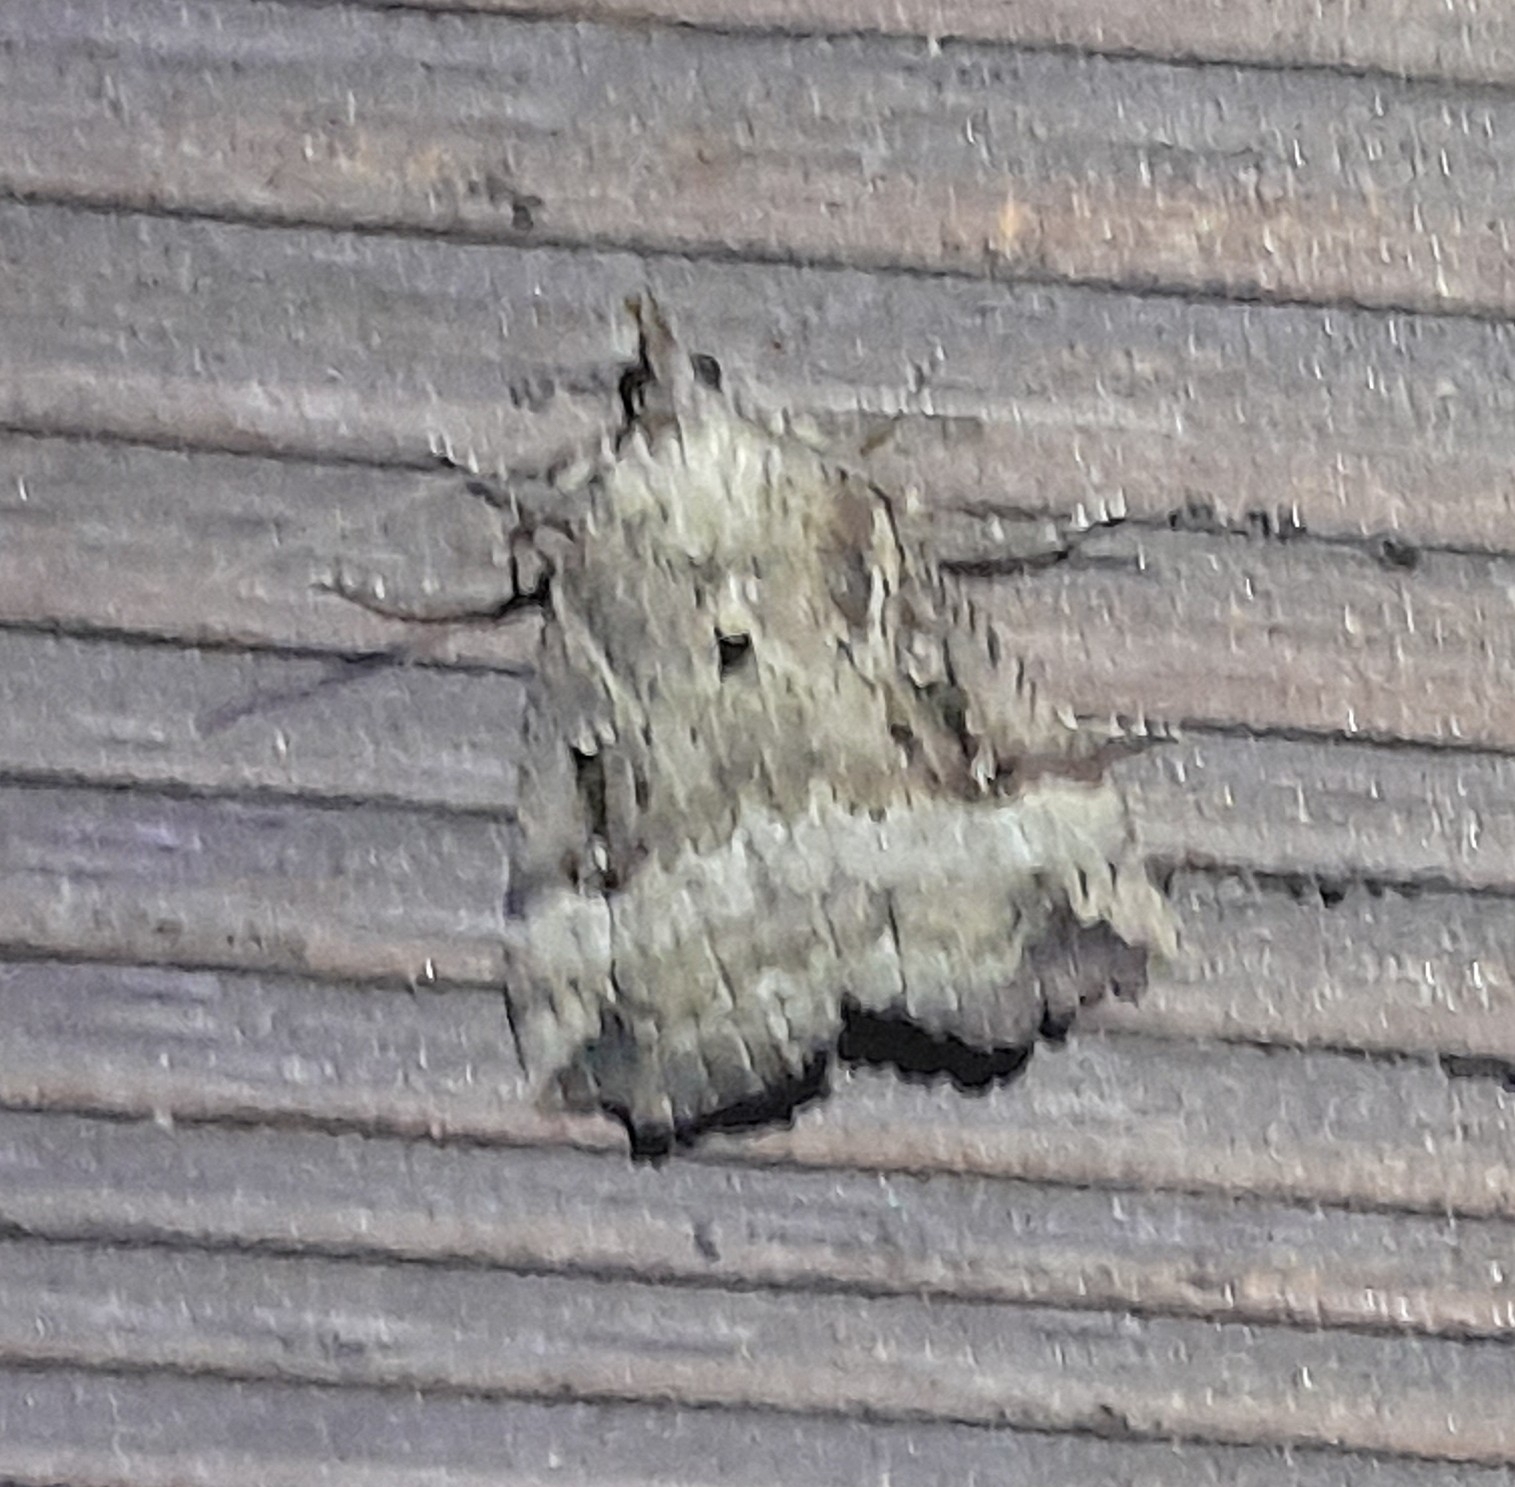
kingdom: Animalia
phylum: Arthropoda
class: Insecta
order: Lepidoptera
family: Erebidae
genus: Hypena
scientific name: Hypena rostralis
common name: Buttoned snout
